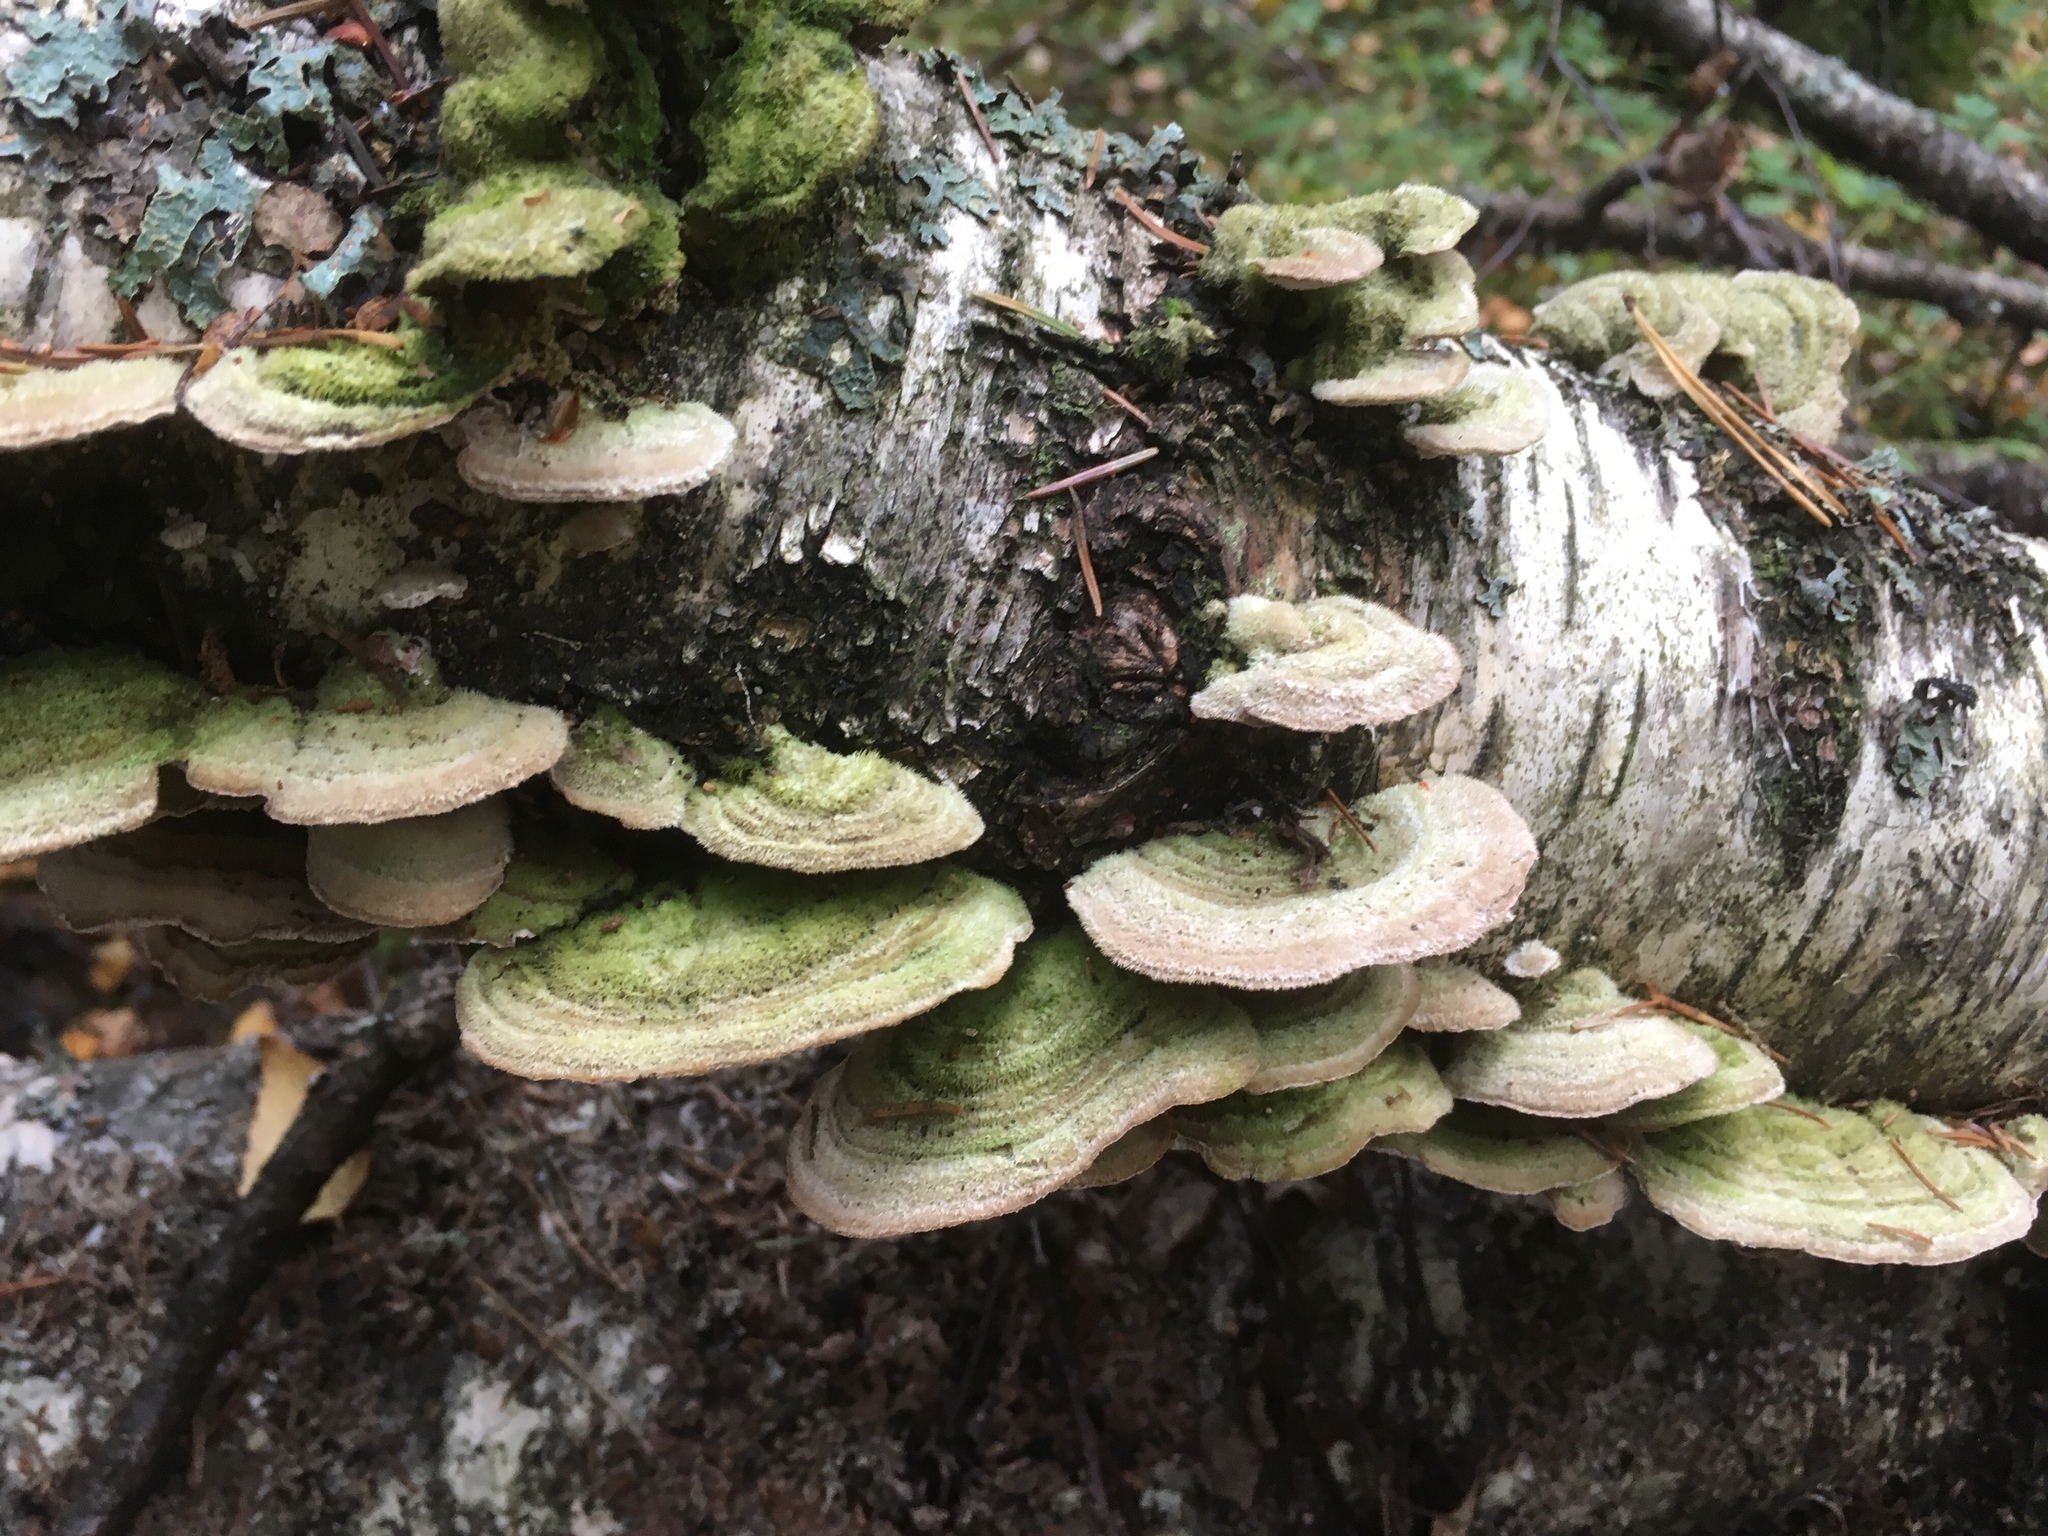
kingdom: Fungi
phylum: Basidiomycota
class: Agaricomycetes
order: Polyporales
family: Cerrenaceae
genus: Cerrena
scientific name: Cerrena unicolor
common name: Mossy maze polypore
